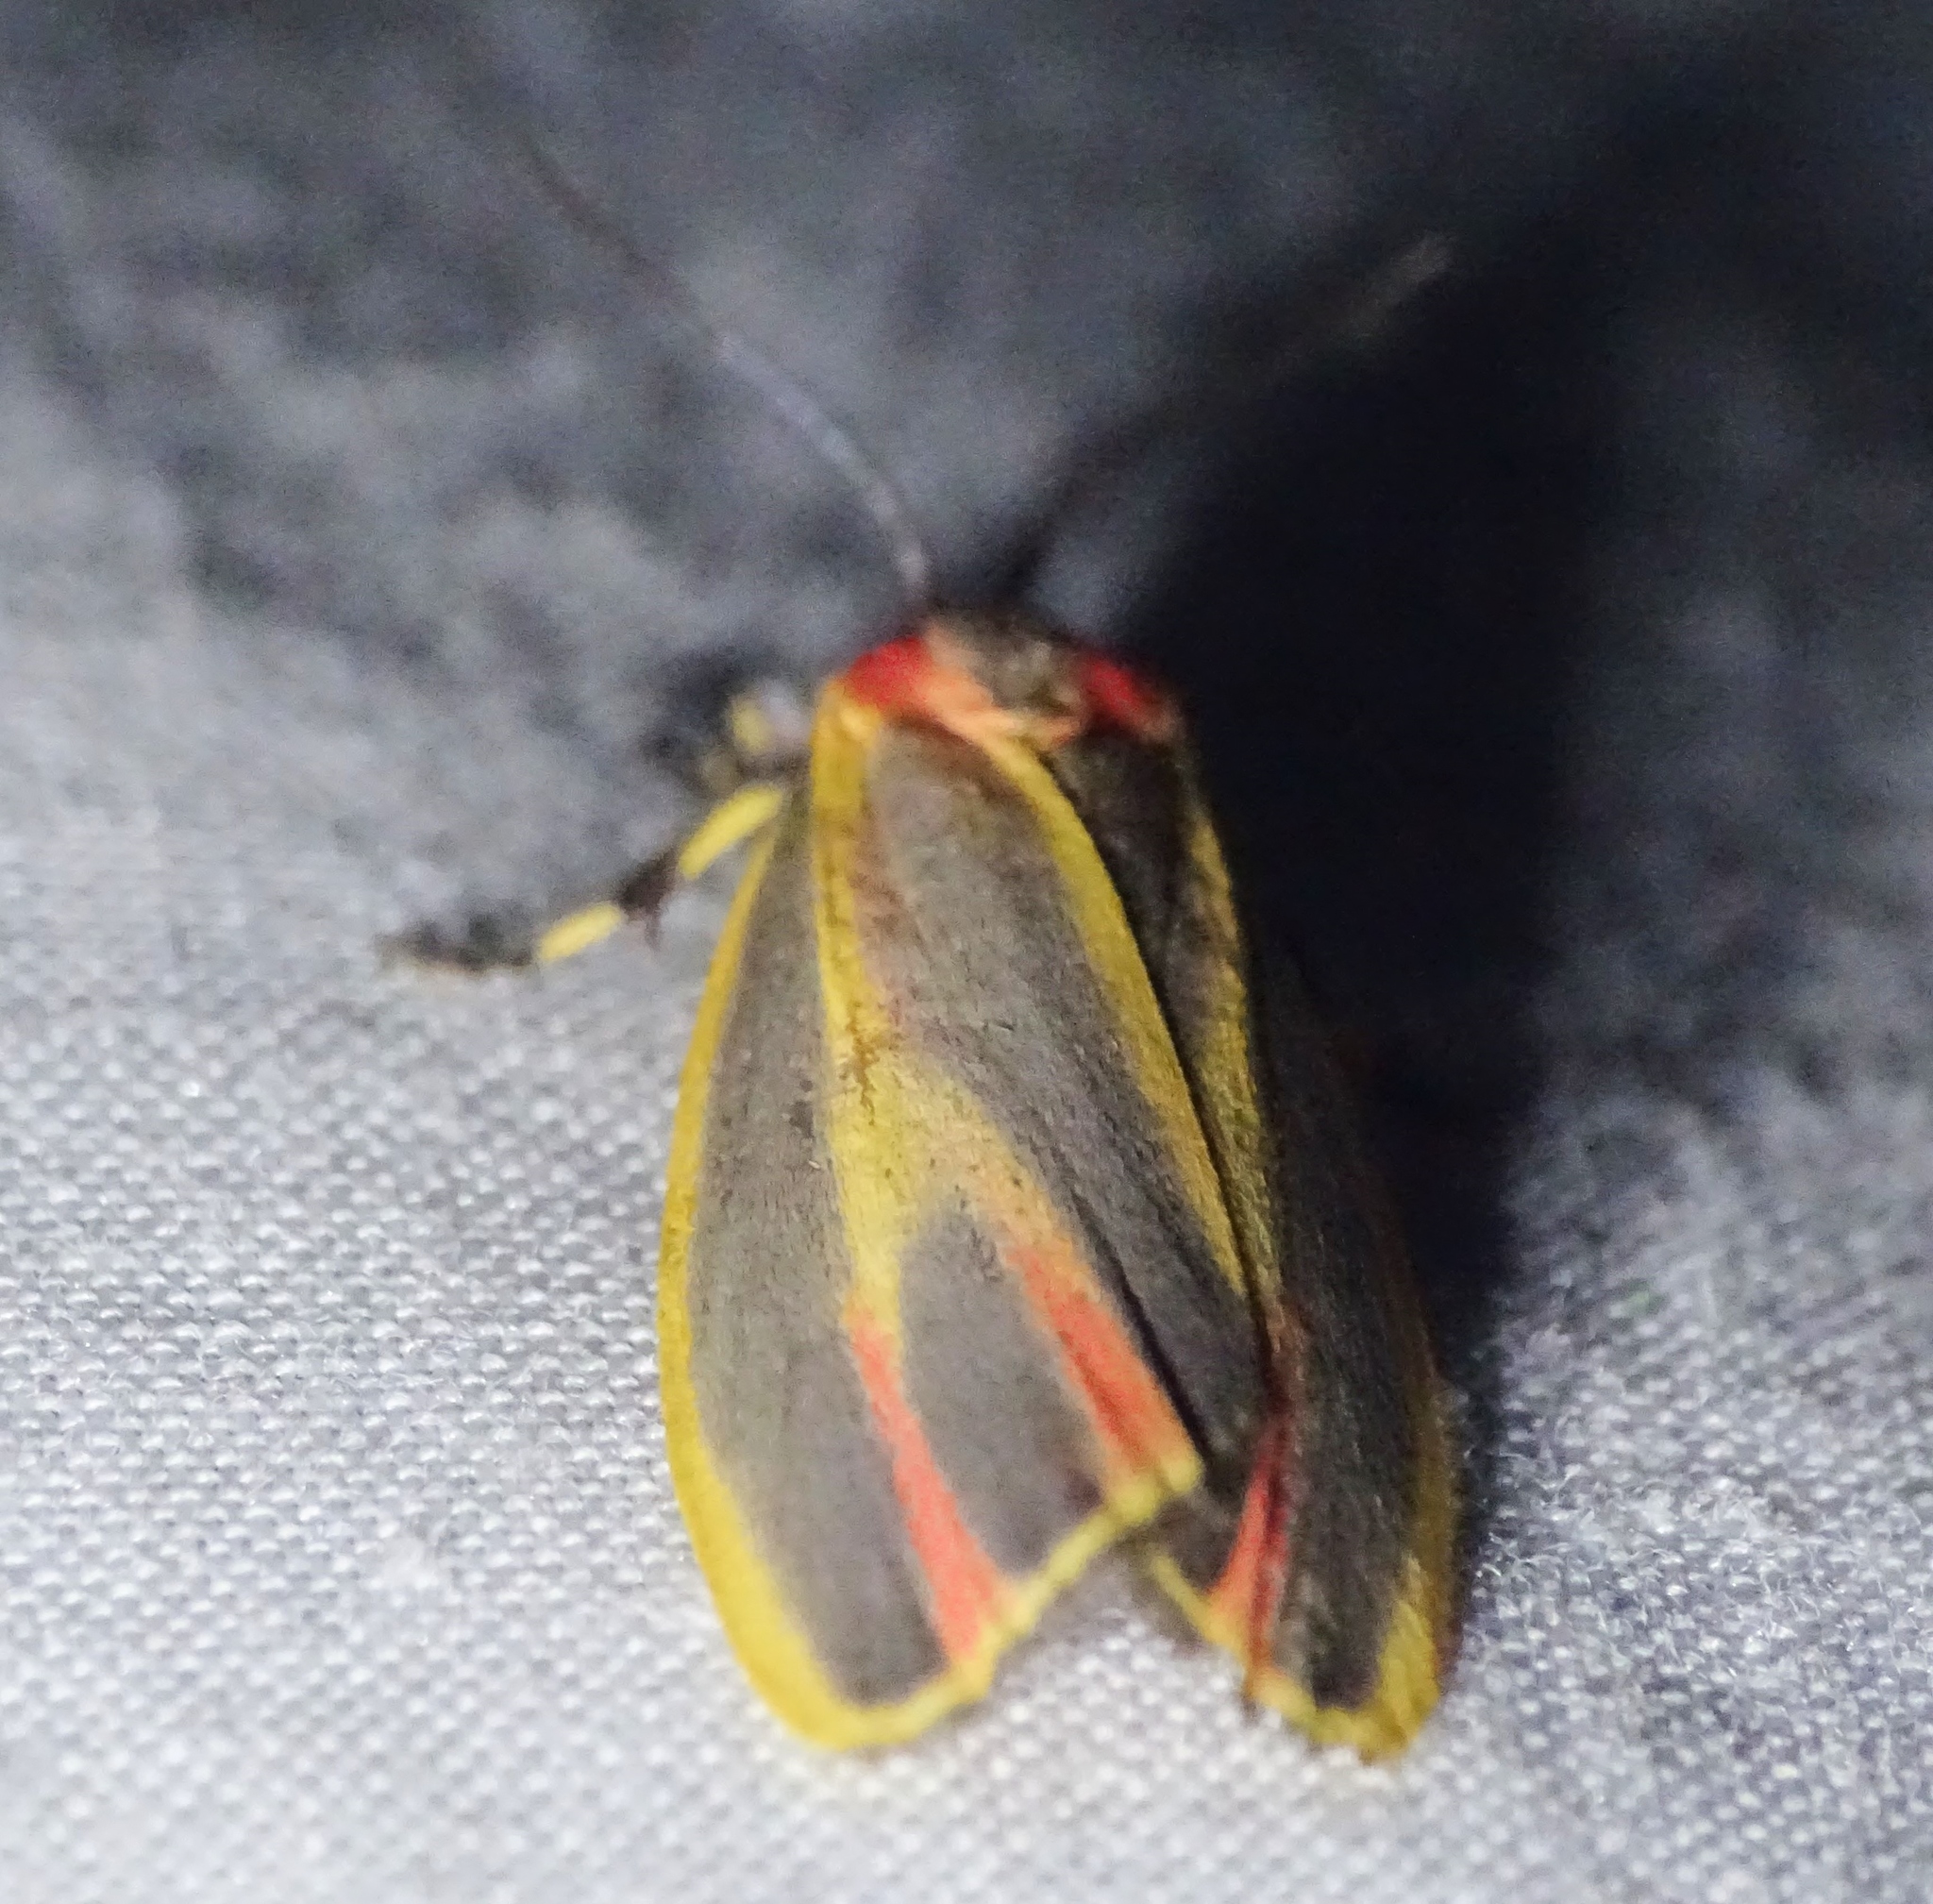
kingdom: Animalia
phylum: Arthropoda
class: Insecta
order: Lepidoptera
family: Erebidae
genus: Hypoprepia
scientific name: Hypoprepia fucosa
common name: Painted lichen moth
